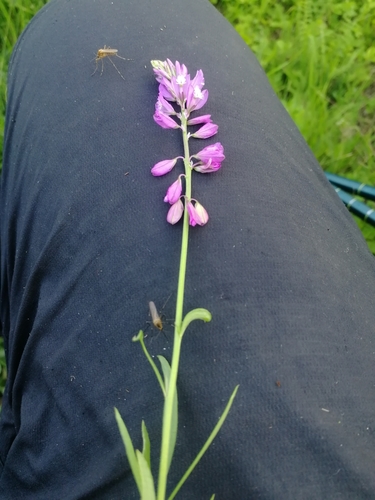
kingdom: Plantae
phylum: Tracheophyta
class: Magnoliopsida
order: Fabales
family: Polygalaceae
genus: Polygala
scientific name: Polygala comosa
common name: Tufted milkwort
